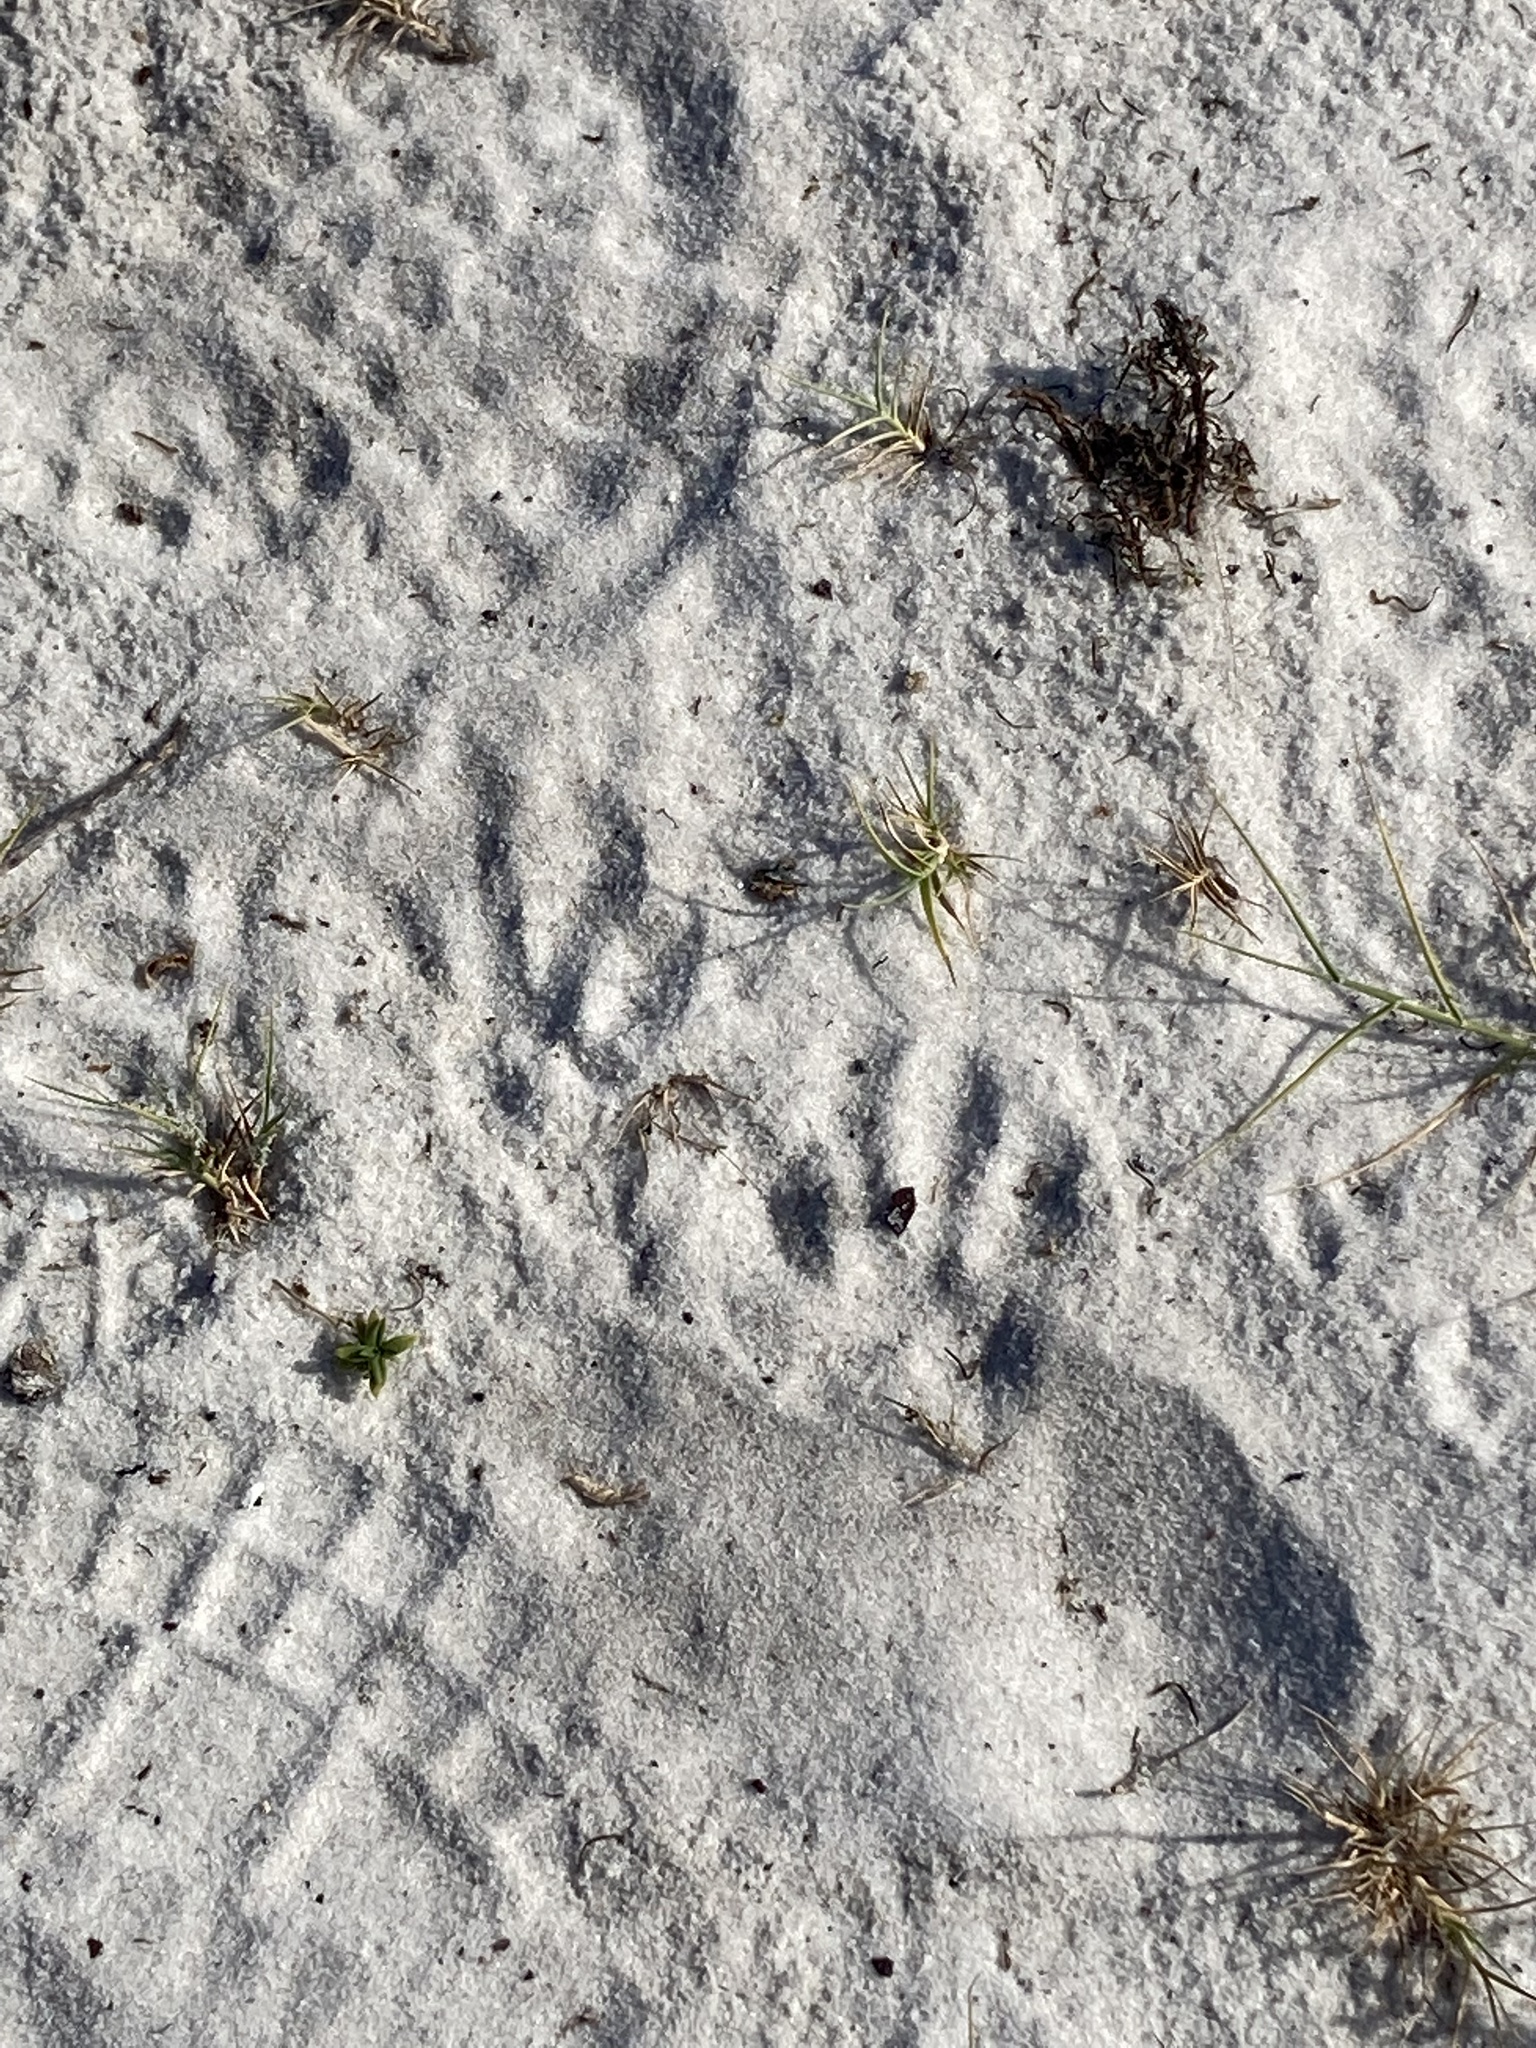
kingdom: Animalia
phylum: Chordata
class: Mammalia
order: Carnivora
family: Procyonidae
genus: Procyon
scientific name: Procyon lotor
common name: Raccoon
